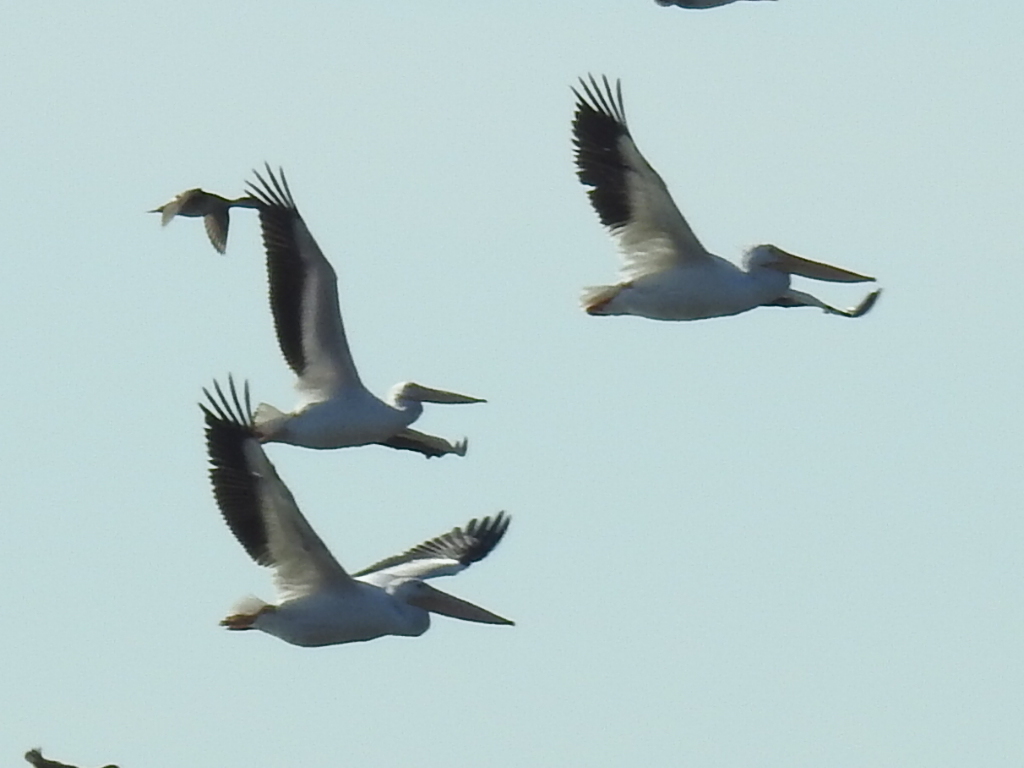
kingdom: Animalia
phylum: Chordata
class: Aves
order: Pelecaniformes
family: Pelecanidae
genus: Pelecanus
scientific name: Pelecanus erythrorhynchos
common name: American white pelican
